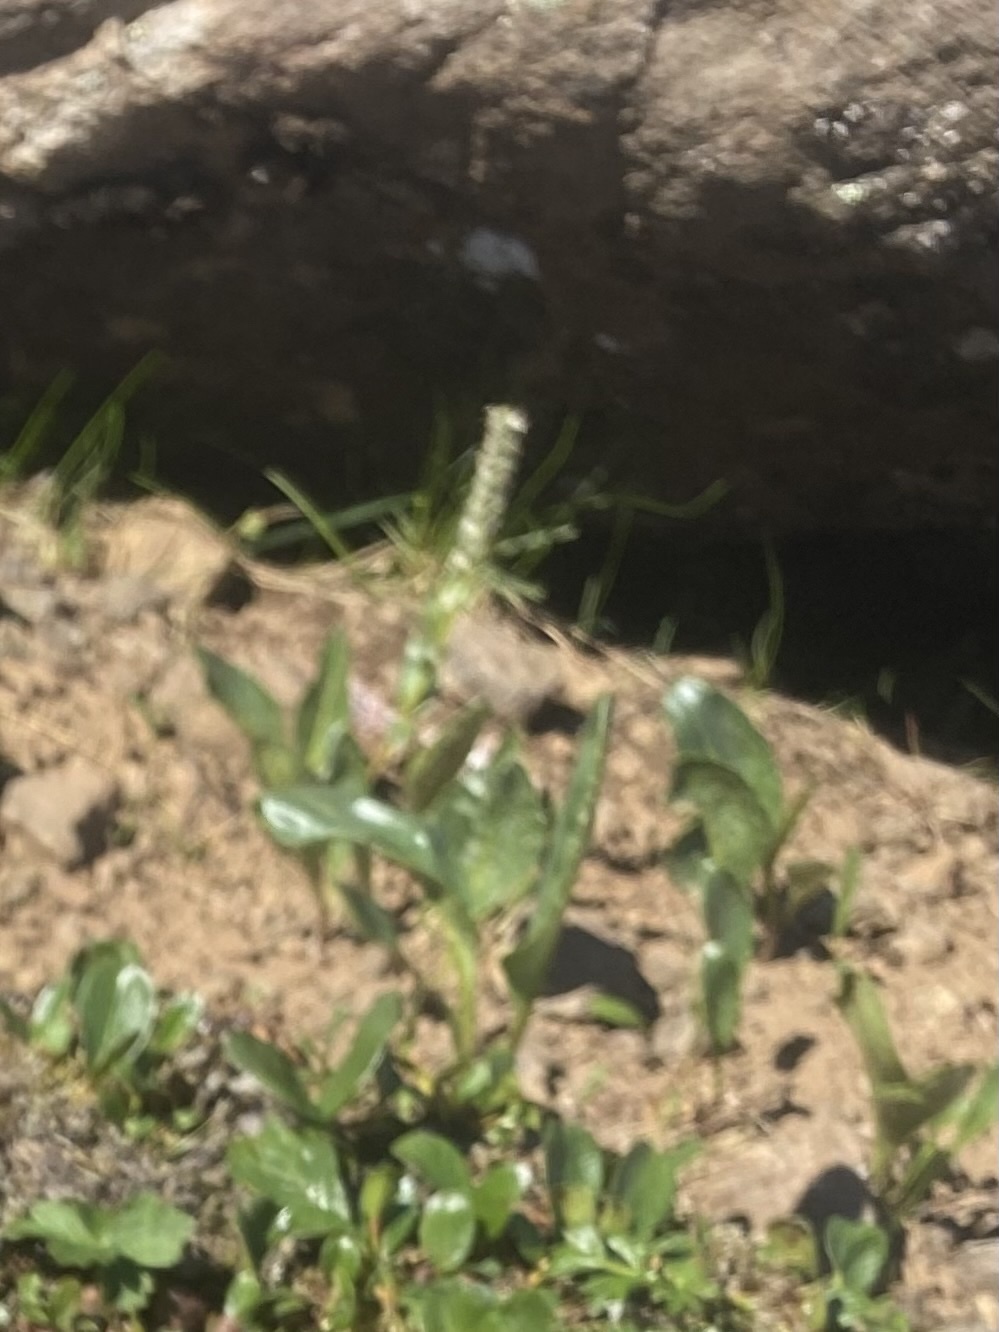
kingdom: Plantae
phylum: Tracheophyta
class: Magnoliopsida
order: Lamiales
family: Plantaginaceae
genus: Lagotis
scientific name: Lagotis glauca
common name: Glaucous weaselsnout
